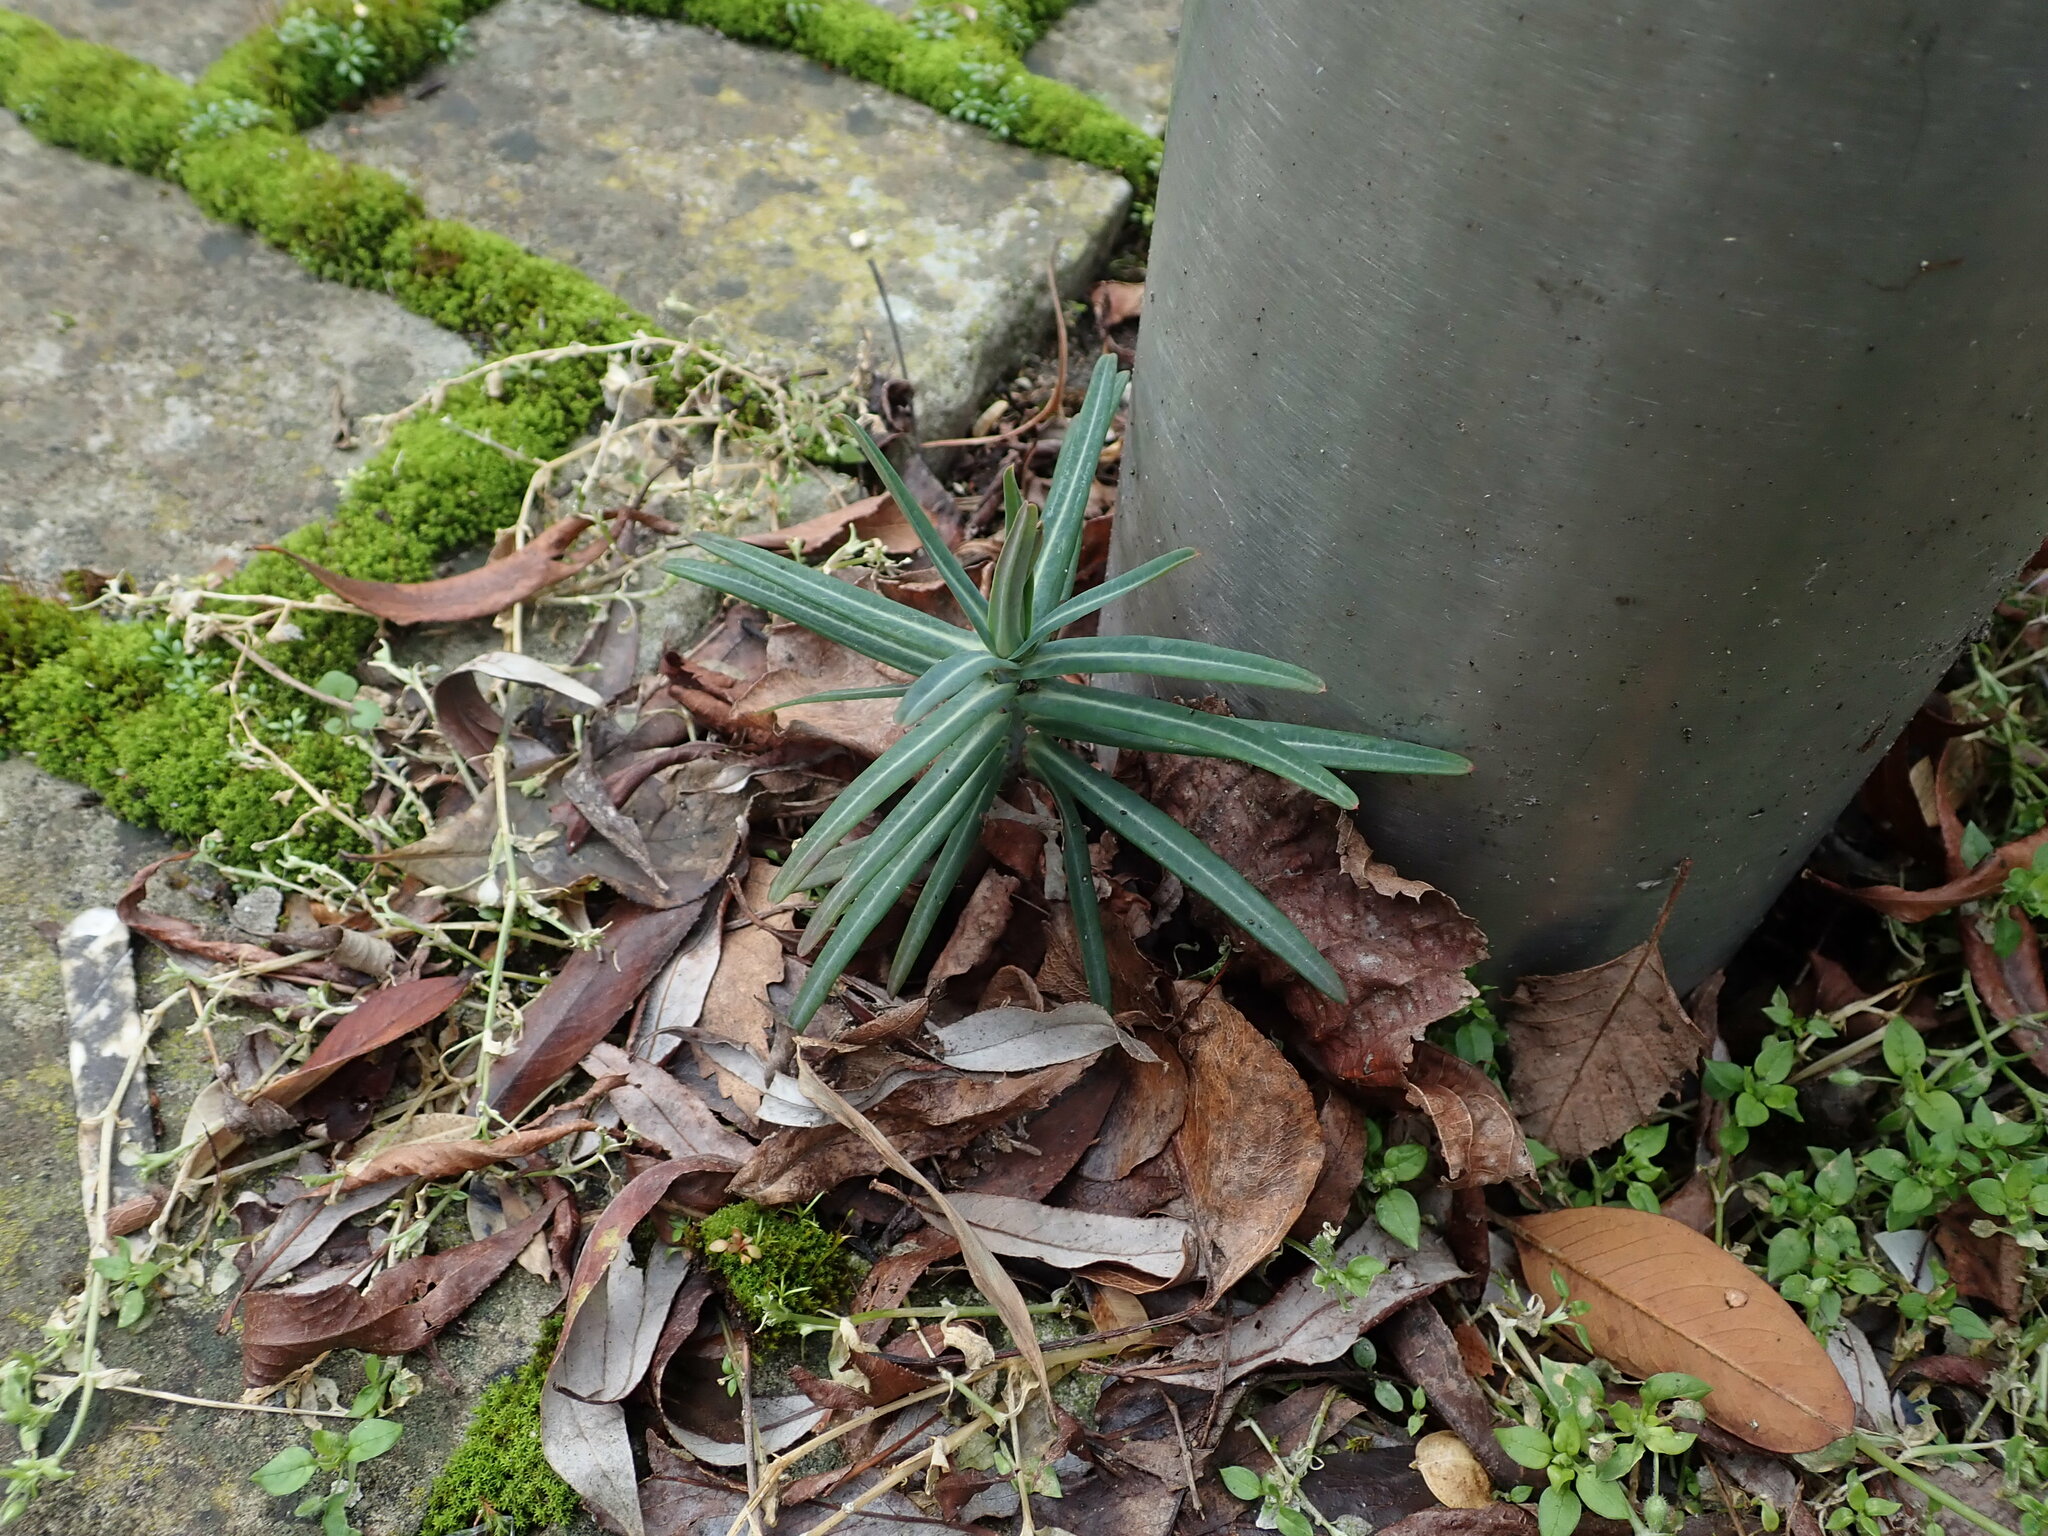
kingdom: Plantae
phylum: Tracheophyta
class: Magnoliopsida
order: Malpighiales
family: Euphorbiaceae
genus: Euphorbia
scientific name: Euphorbia lathyris
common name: Caper spurge
